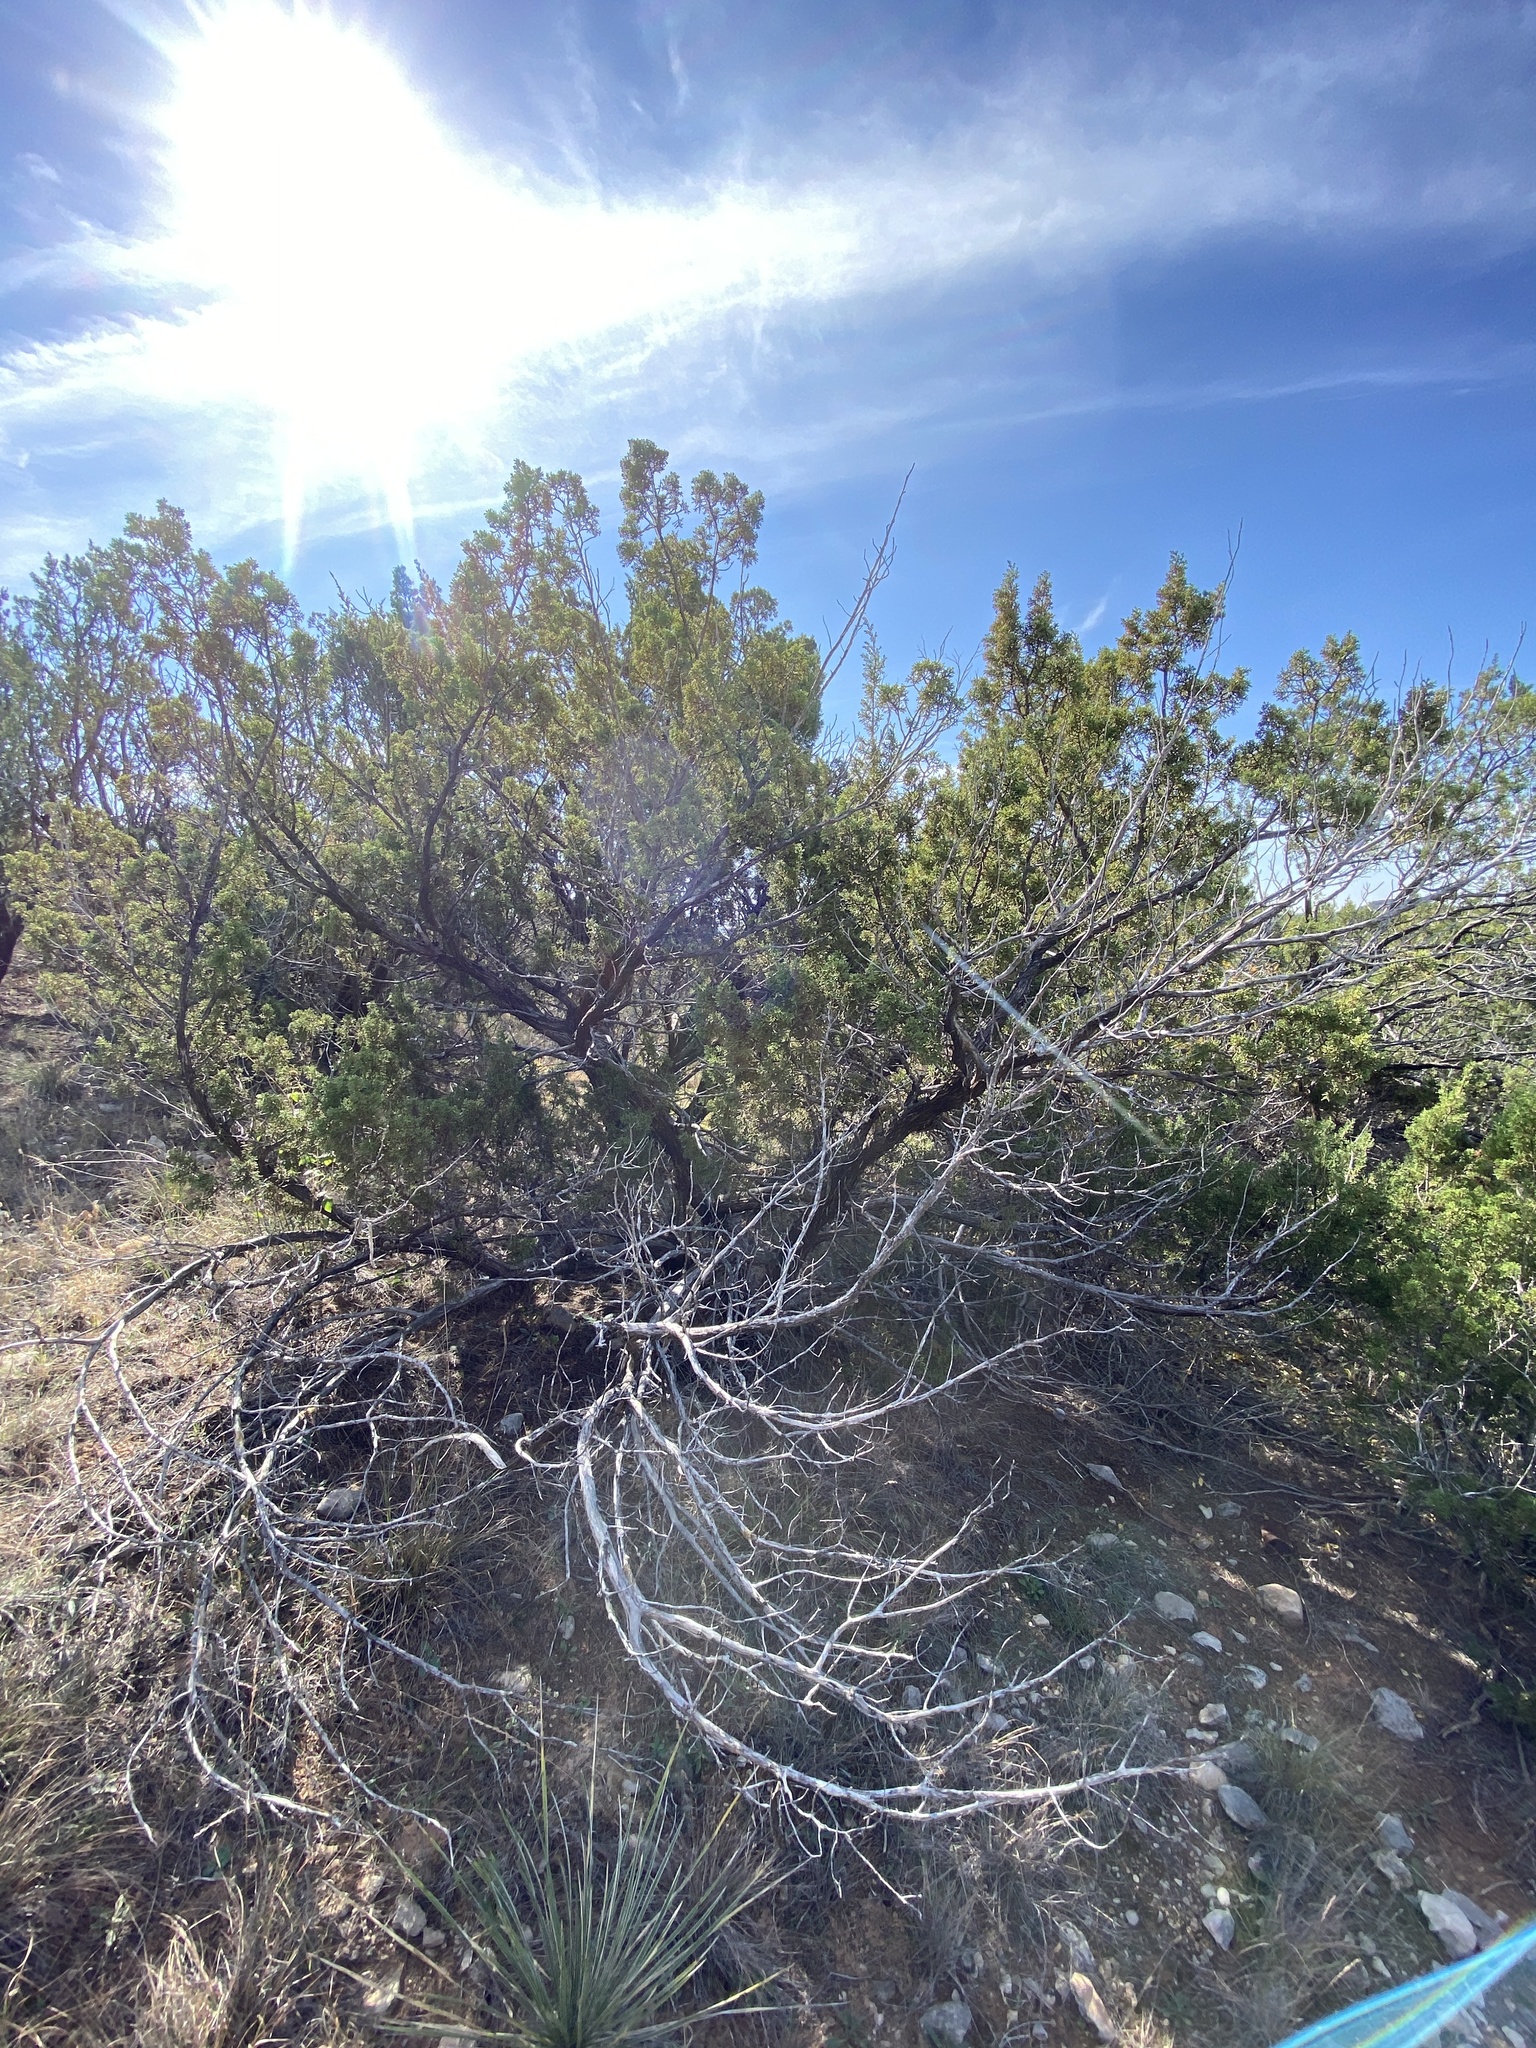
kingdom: Plantae
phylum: Tracheophyta
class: Pinopsida
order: Pinales
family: Cupressaceae
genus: Juniperus
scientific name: Juniperus pinchotii
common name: Pinchot juniper
